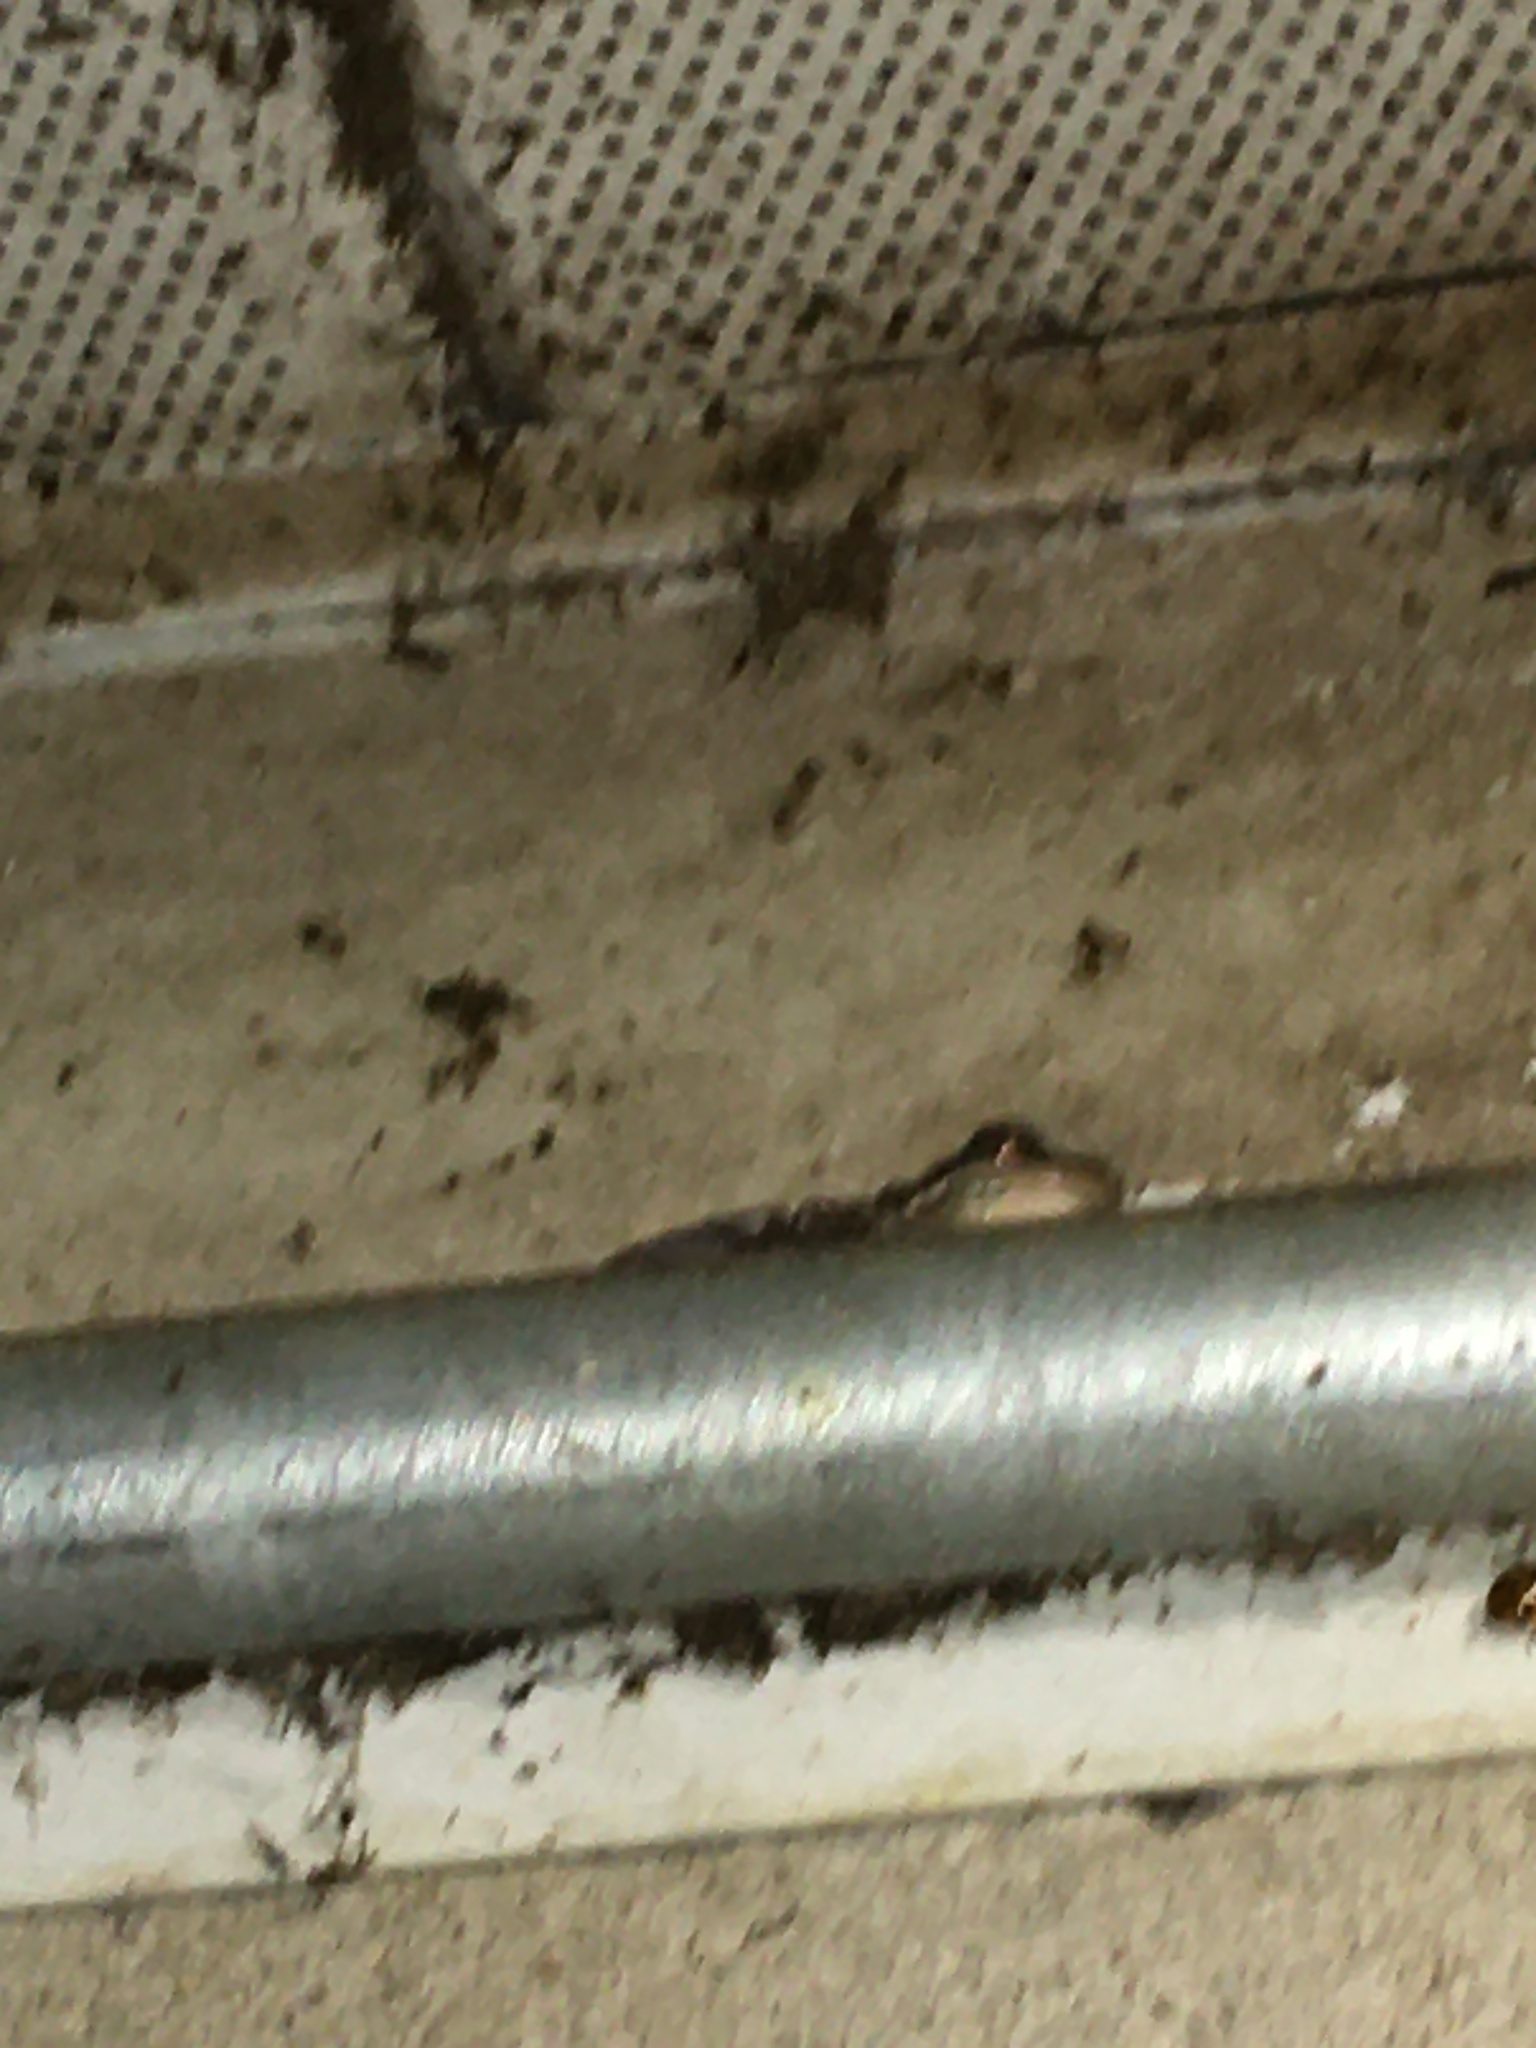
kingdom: Animalia
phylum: Chordata
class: Amphibia
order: Anura
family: Hylidae
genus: Dryophytes
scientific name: Dryophytes cinereus
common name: Green treefrog
